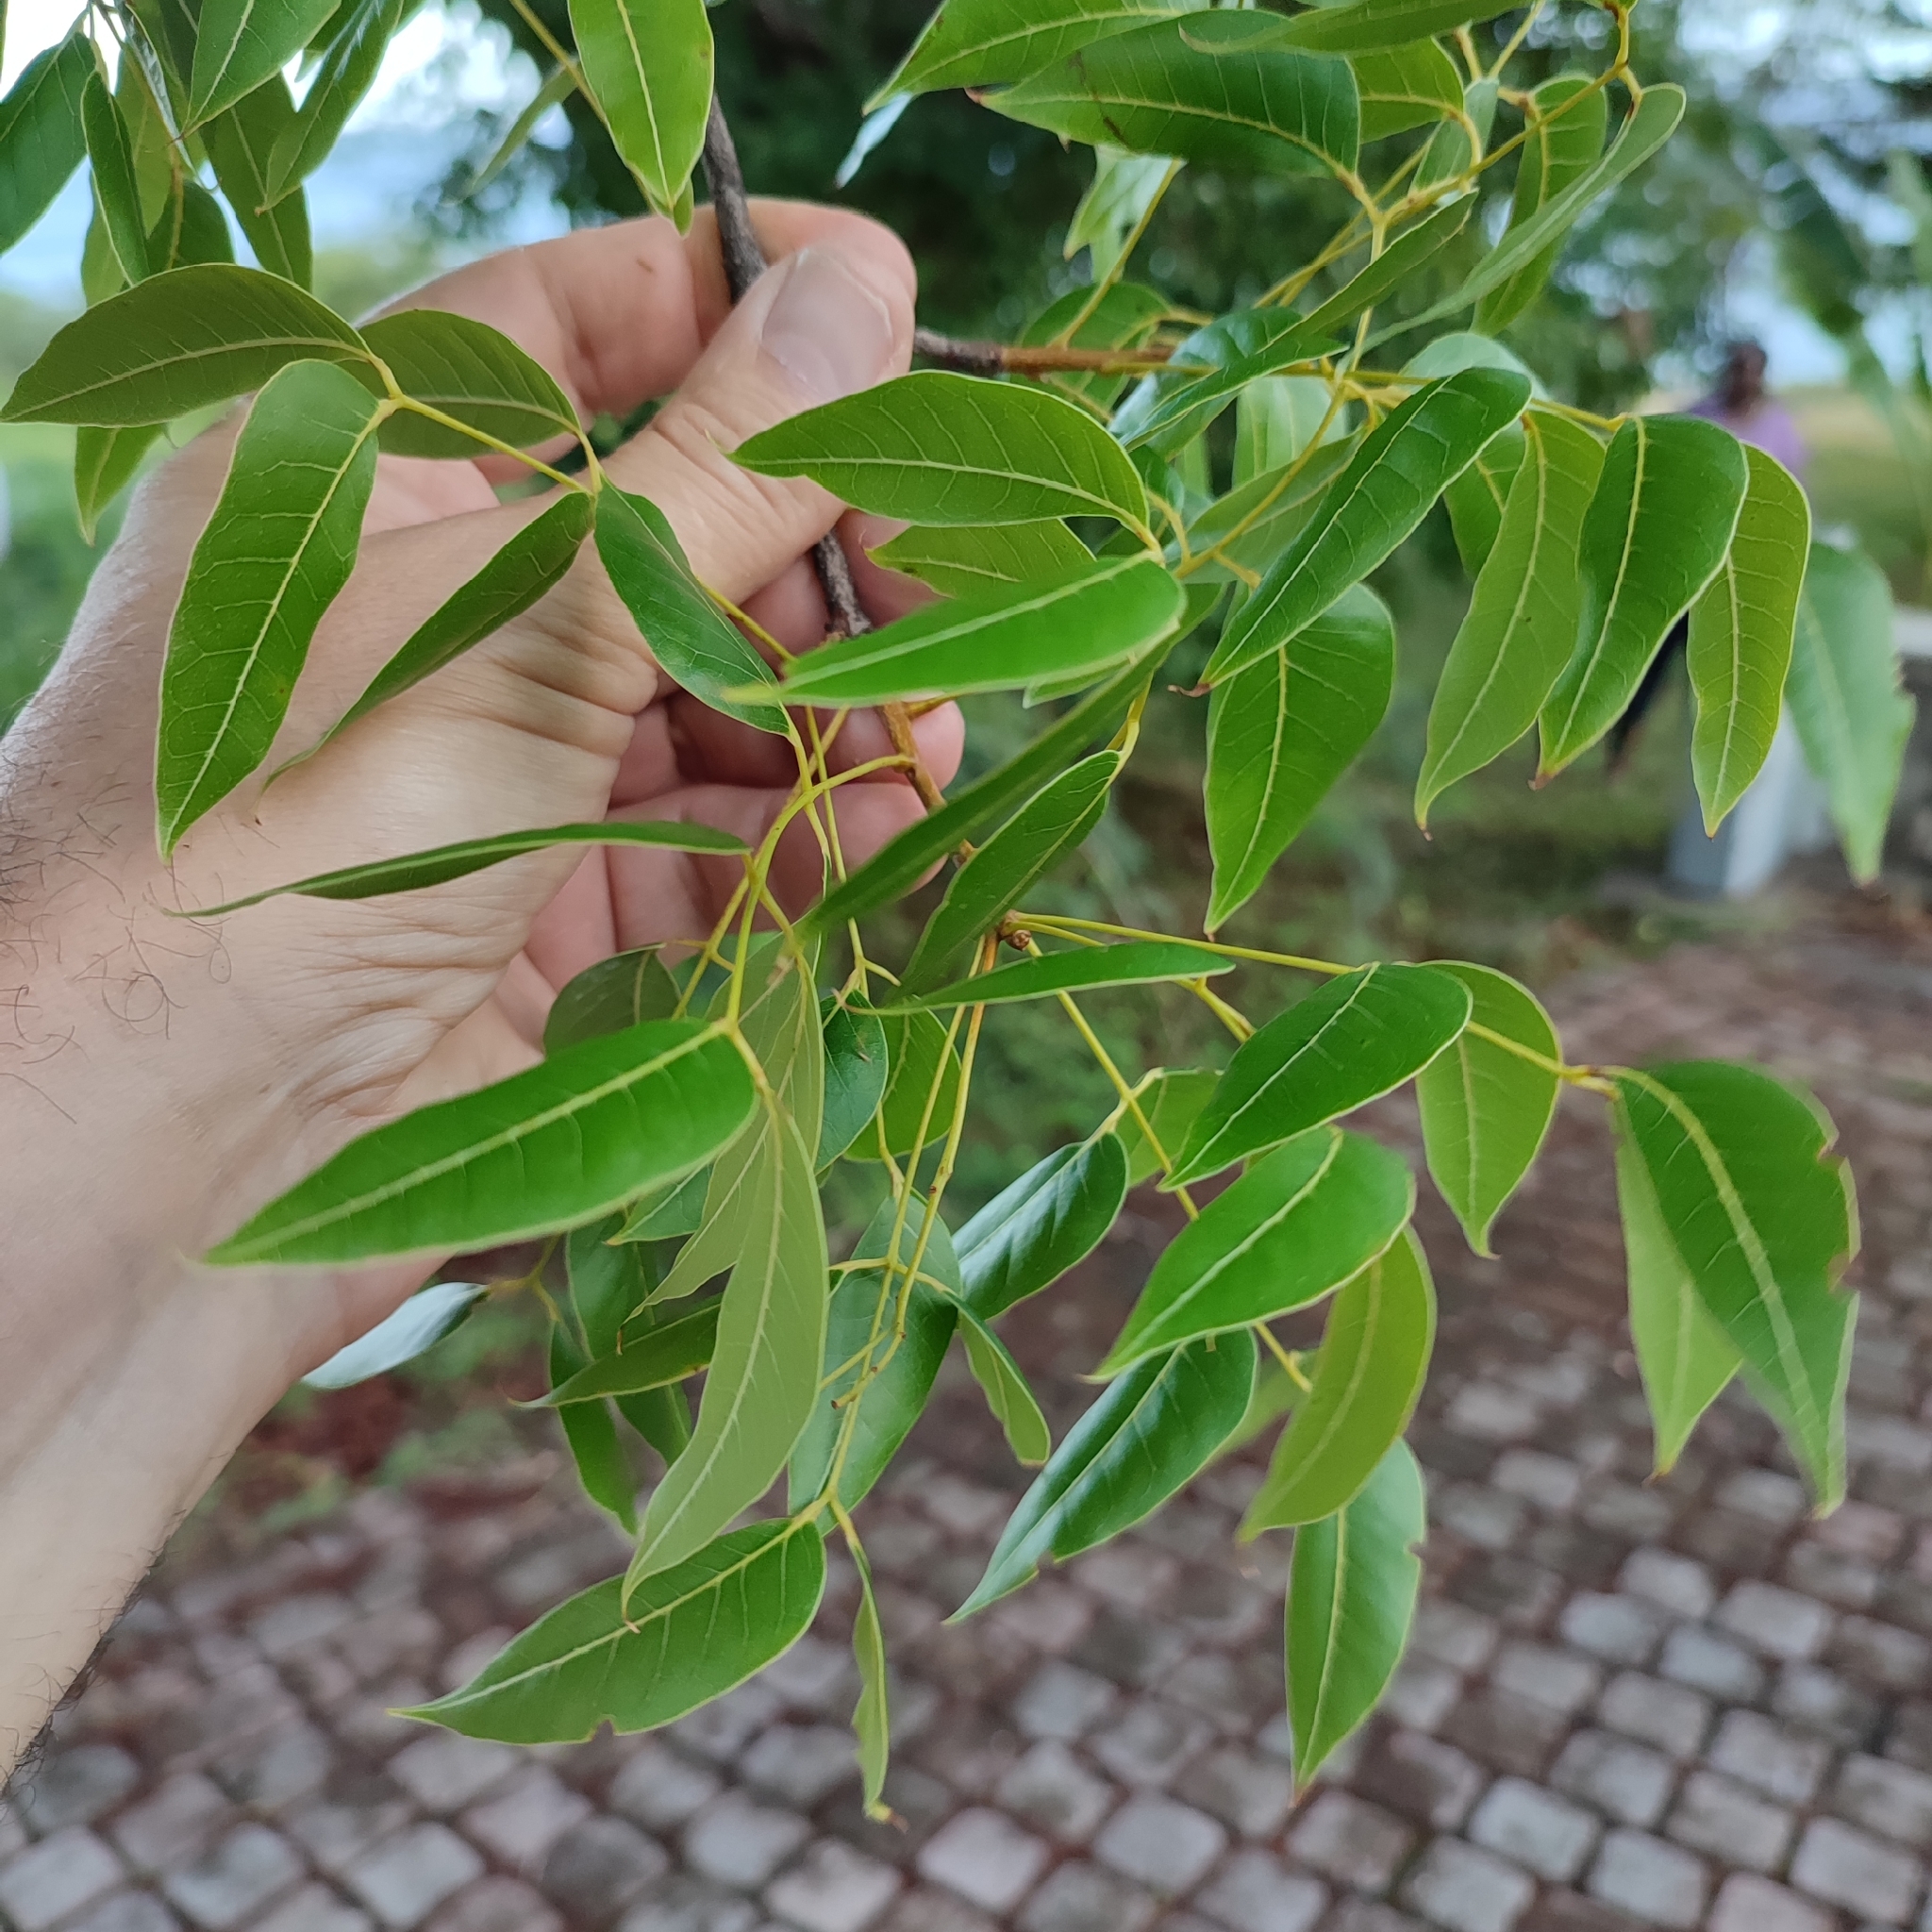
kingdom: Plantae
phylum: Tracheophyta
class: Magnoliopsida
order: Sapindales
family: Meliaceae
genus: Swietenia
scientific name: Swietenia mahagoni
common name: West indian mahogany
